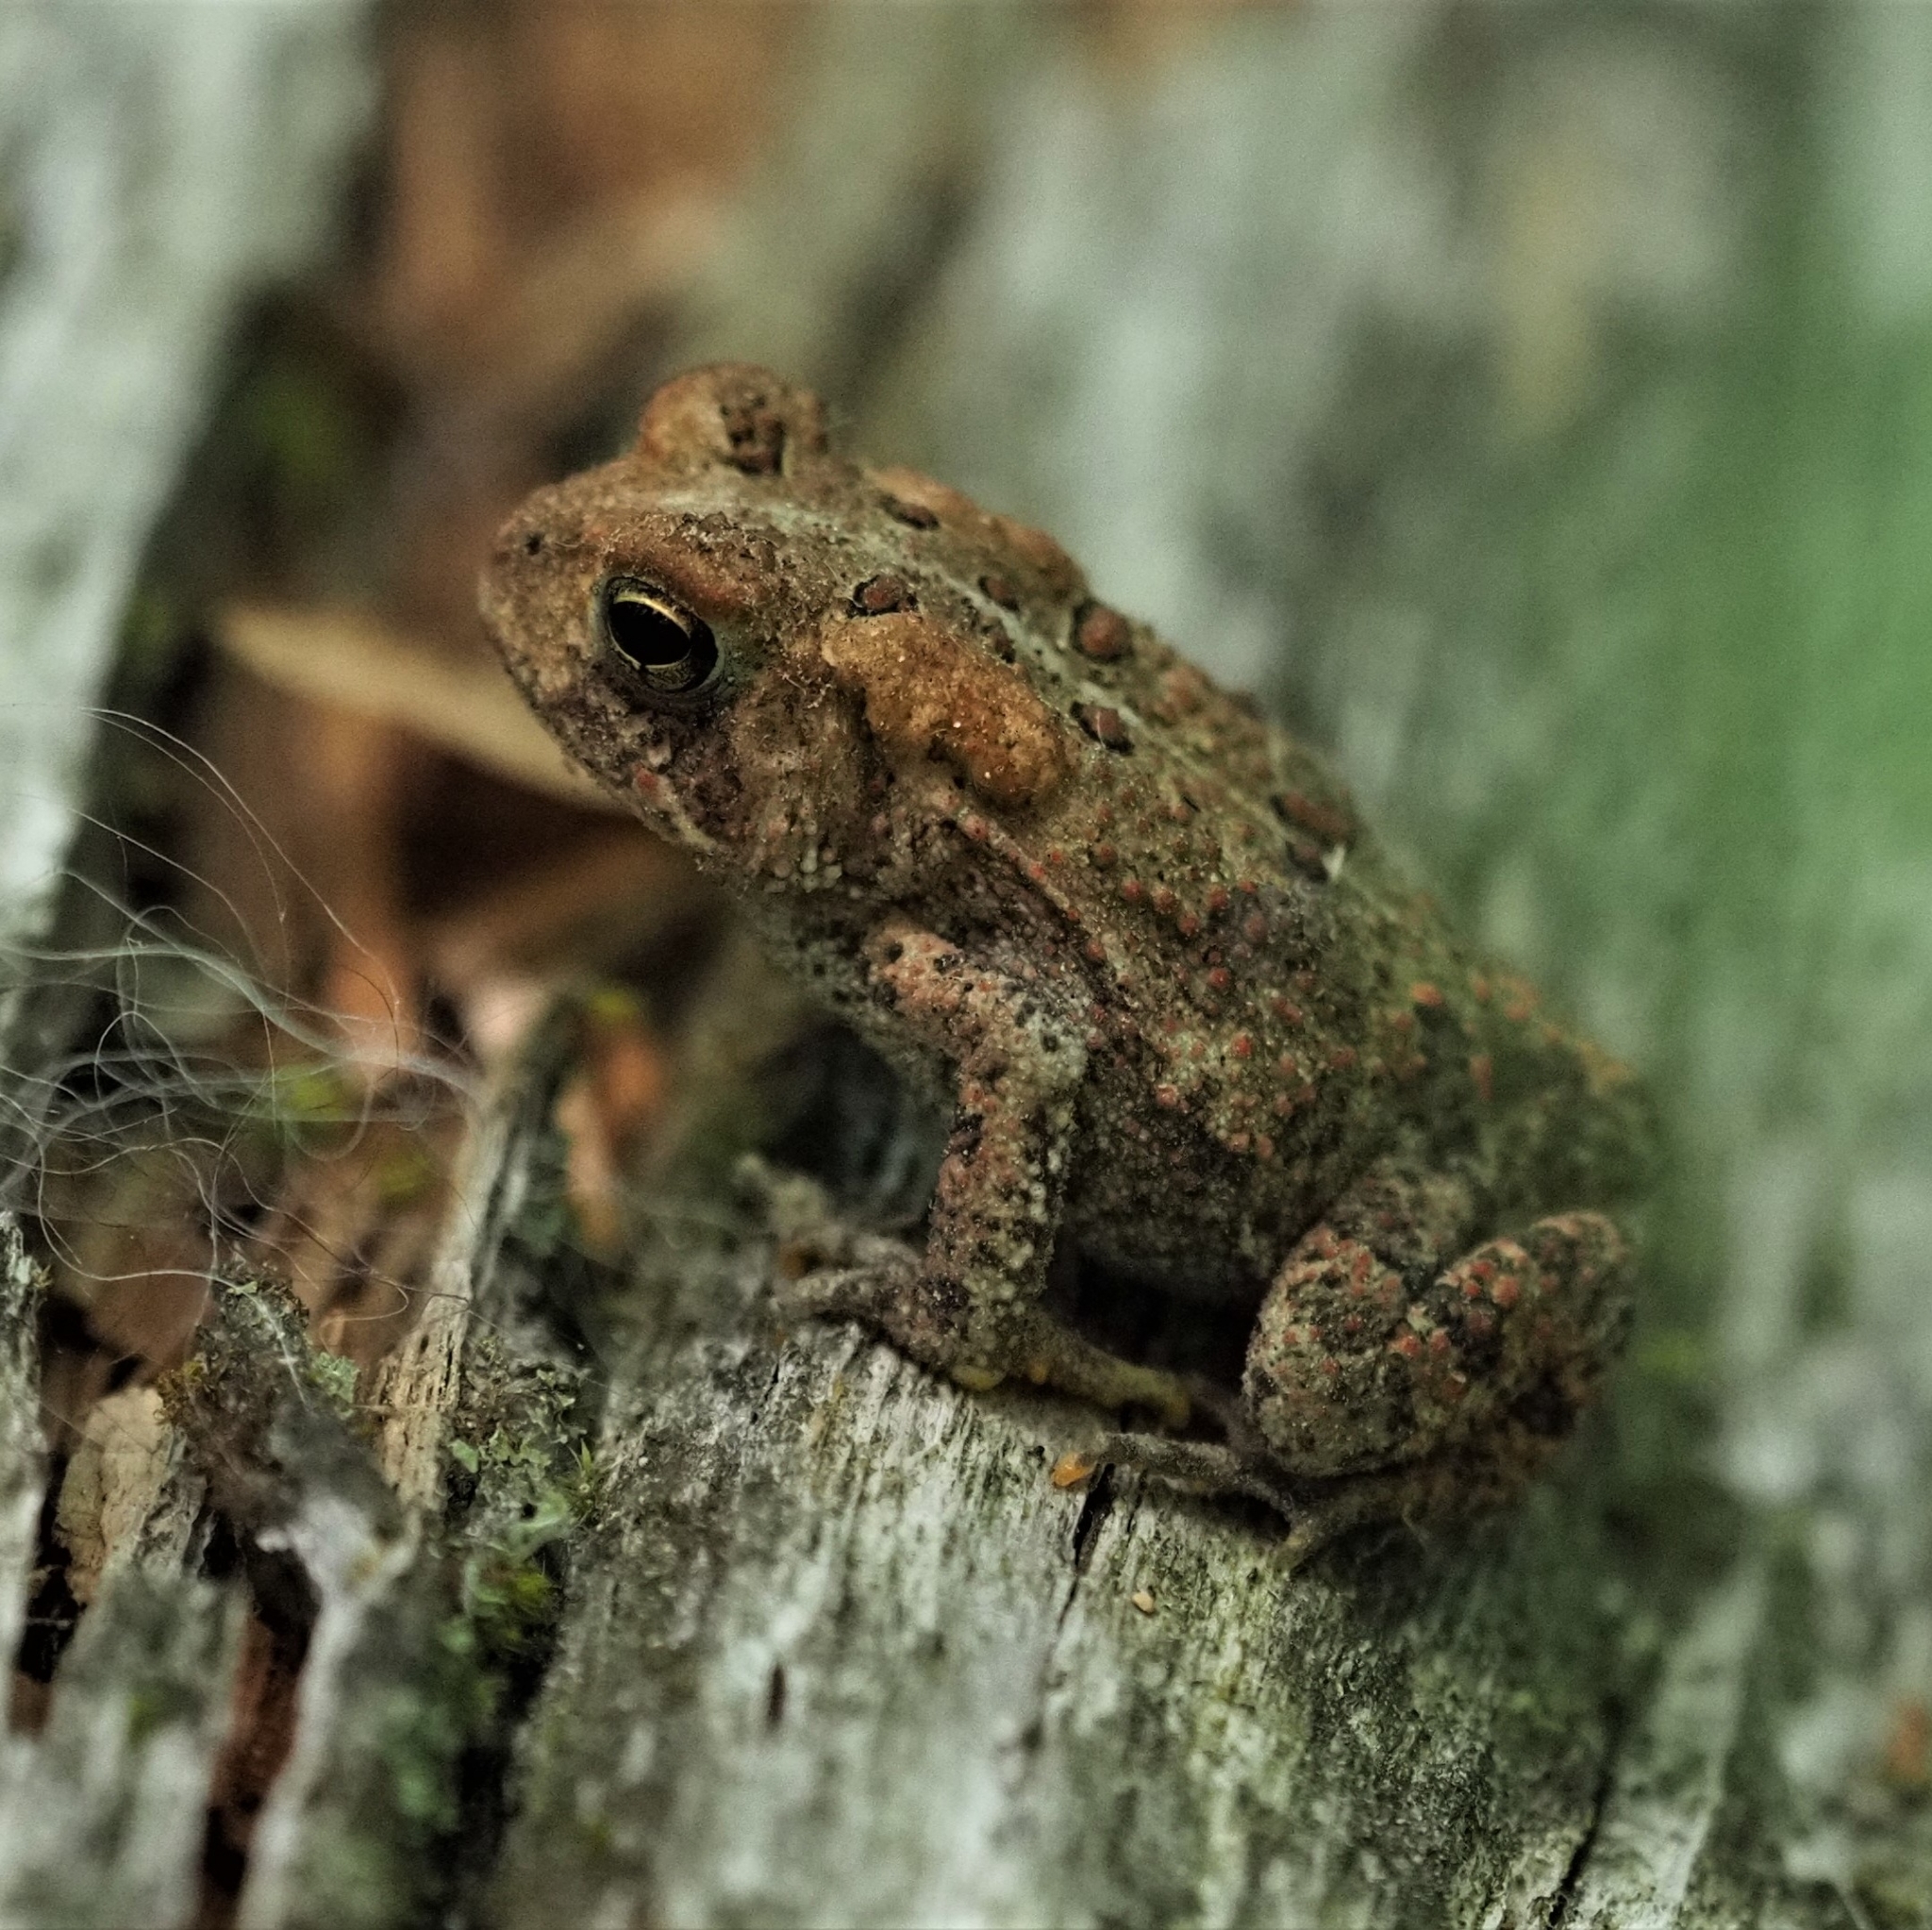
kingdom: Animalia
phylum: Chordata
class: Amphibia
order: Anura
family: Bufonidae
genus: Anaxyrus
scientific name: Anaxyrus americanus
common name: American toad
